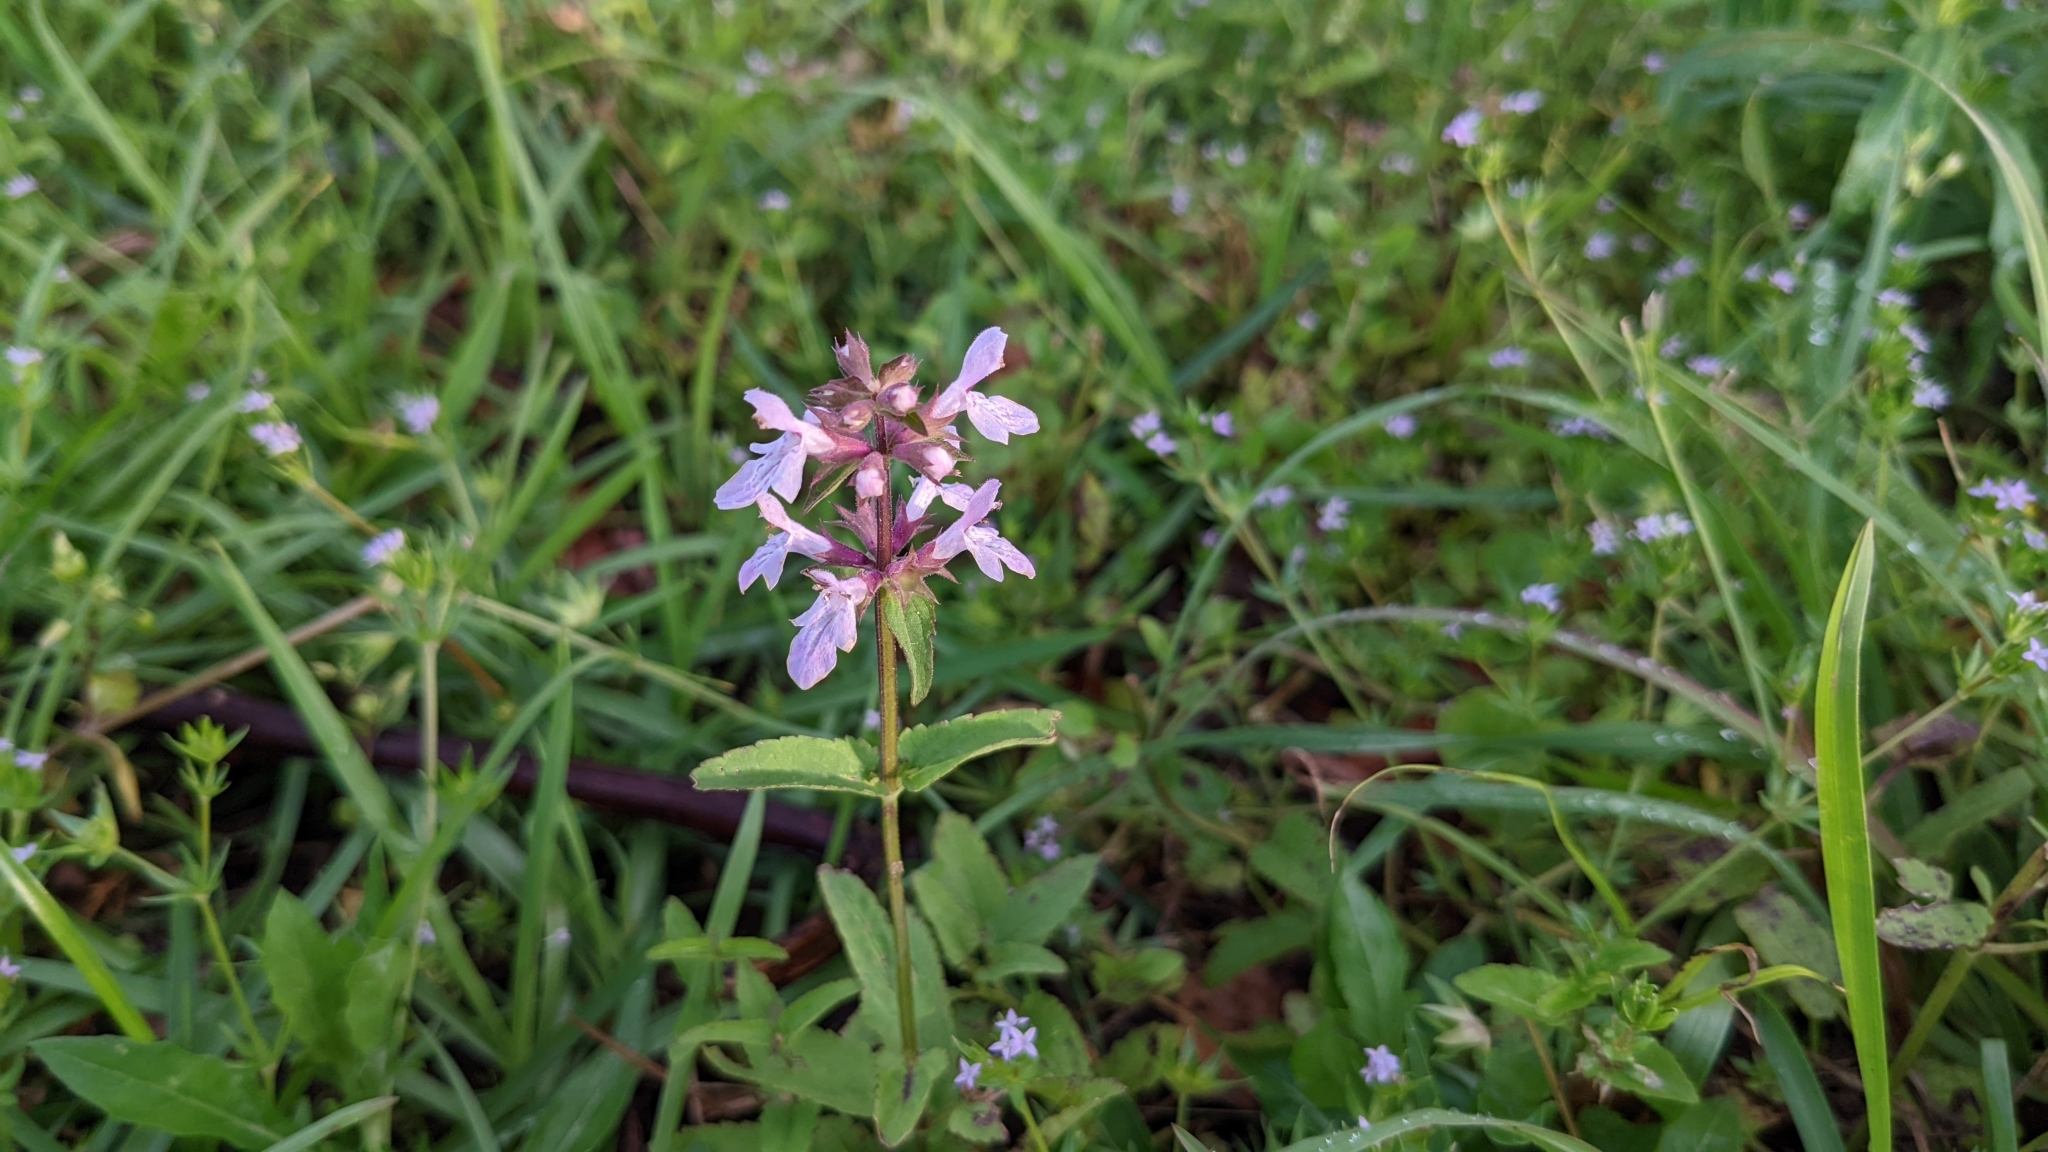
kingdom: Plantae
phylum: Tracheophyta
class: Magnoliopsida
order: Lamiales
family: Lamiaceae
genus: Stachys
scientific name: Stachys floridana
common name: Florida betony
